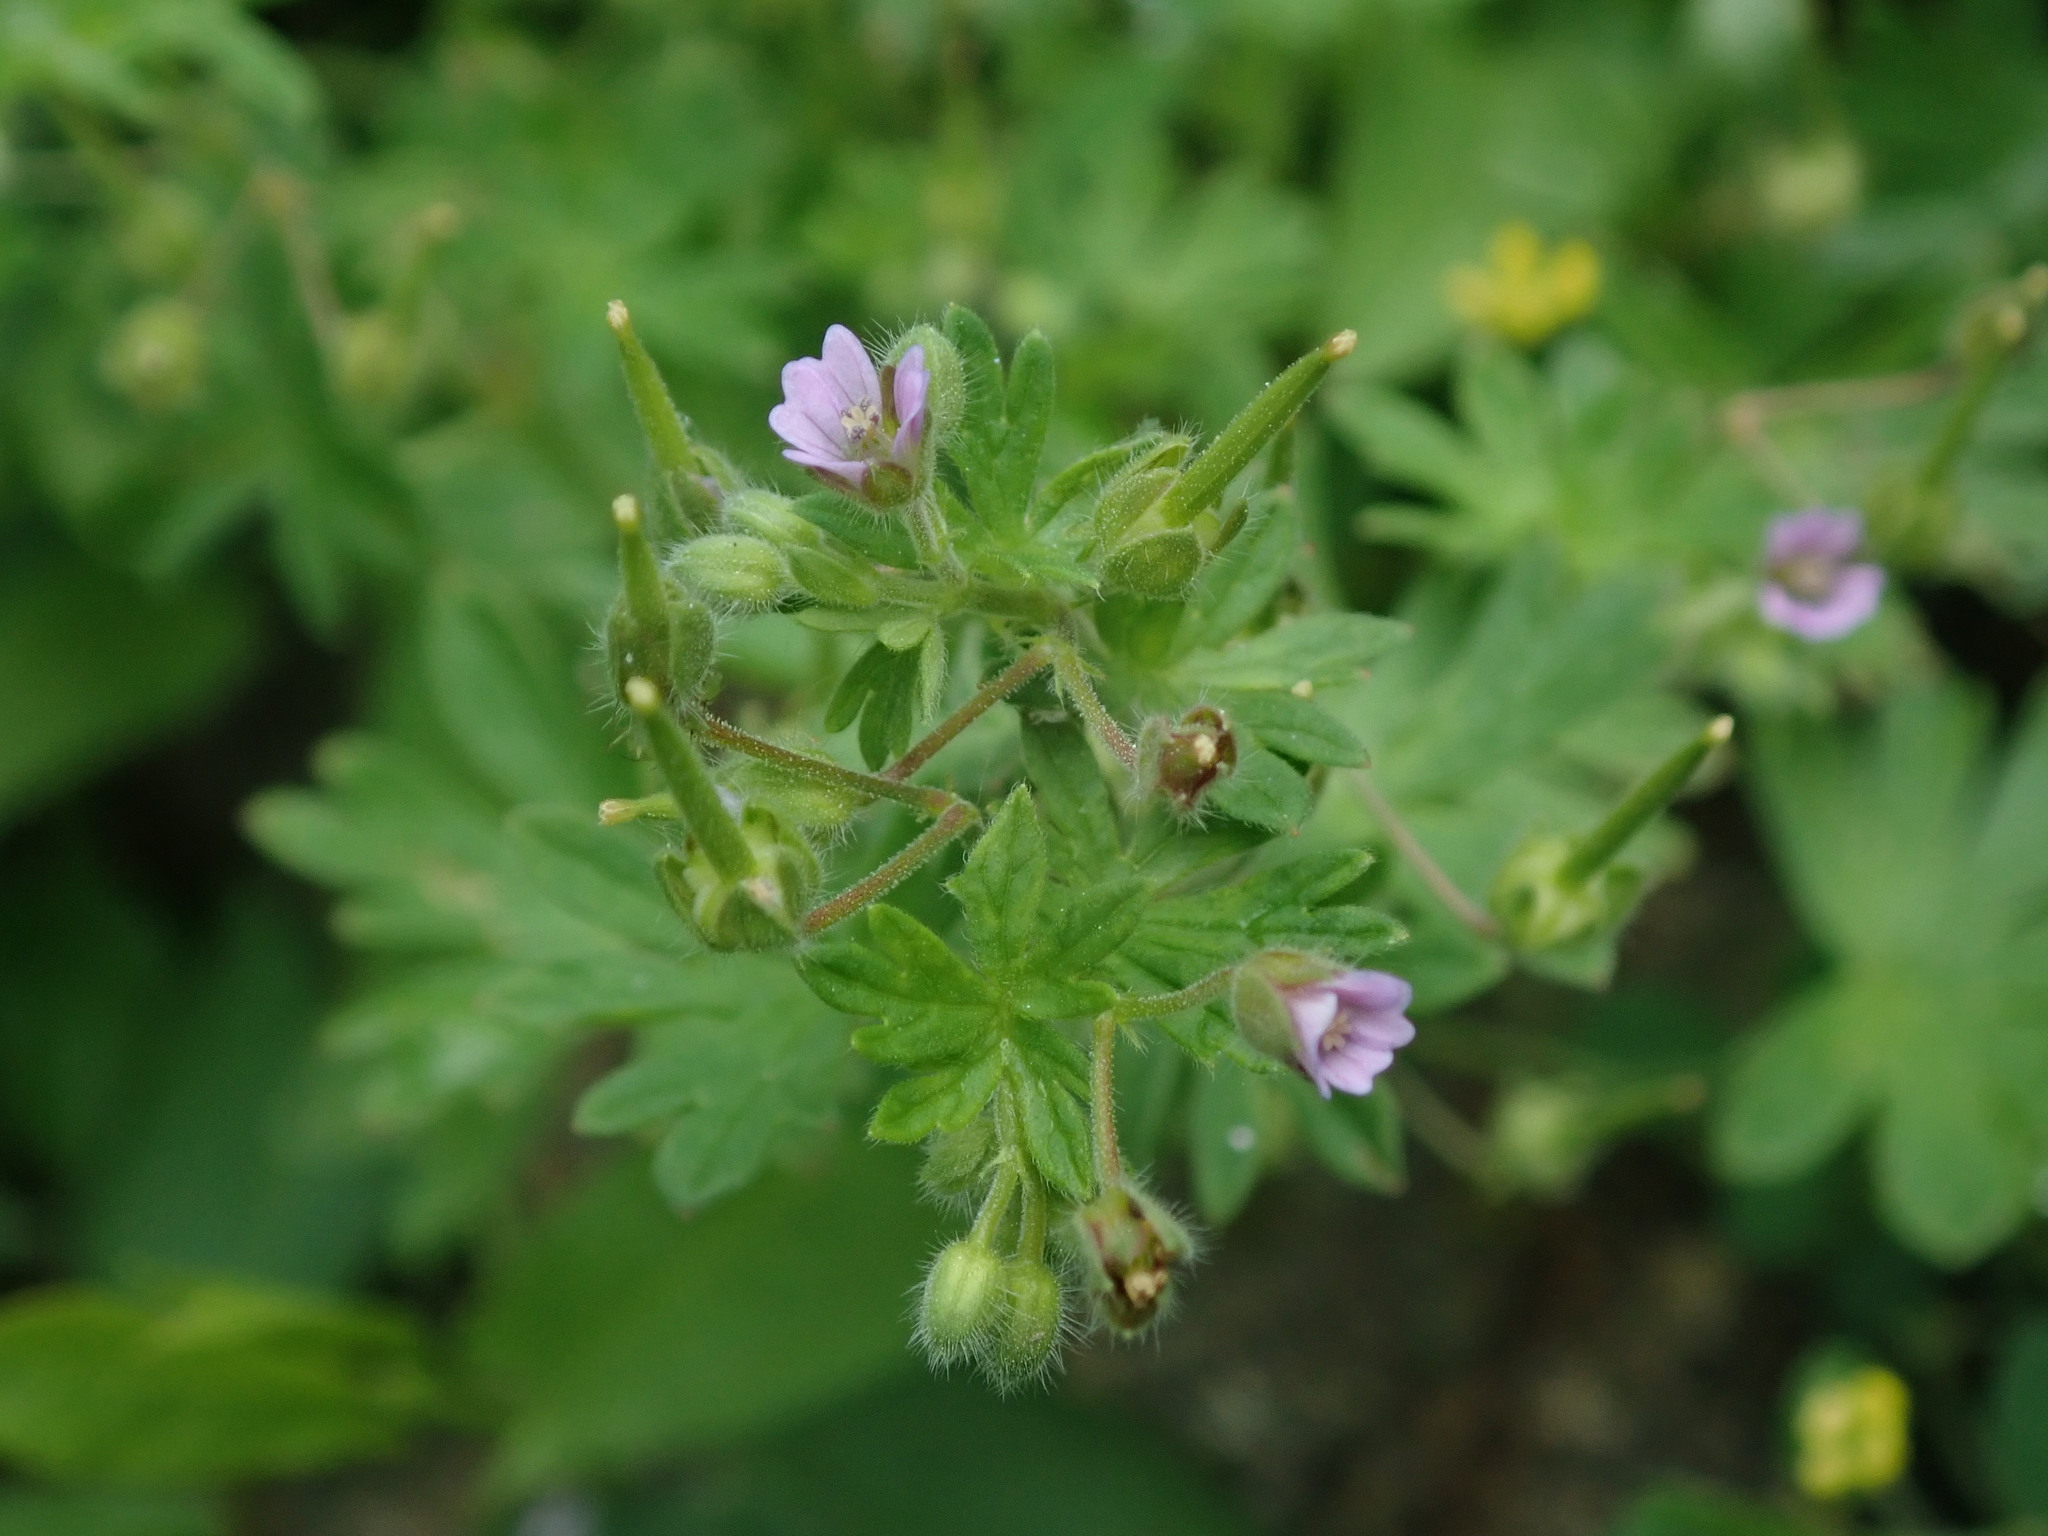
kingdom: Plantae
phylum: Tracheophyta
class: Magnoliopsida
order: Geraniales
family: Geraniaceae
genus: Geranium
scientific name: Geranium pusillum
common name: Small geranium
